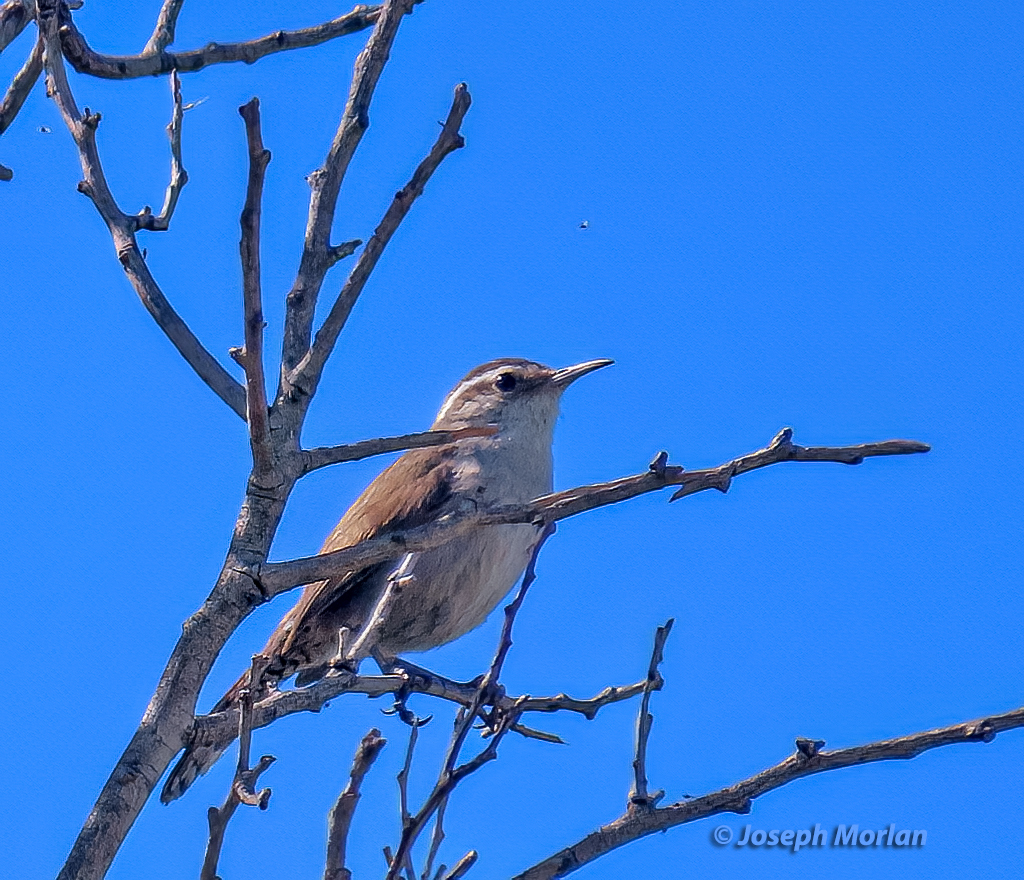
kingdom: Animalia
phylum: Chordata
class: Aves
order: Passeriformes
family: Troglodytidae
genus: Thryomanes
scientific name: Thryomanes bewickii
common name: Bewick's wren
